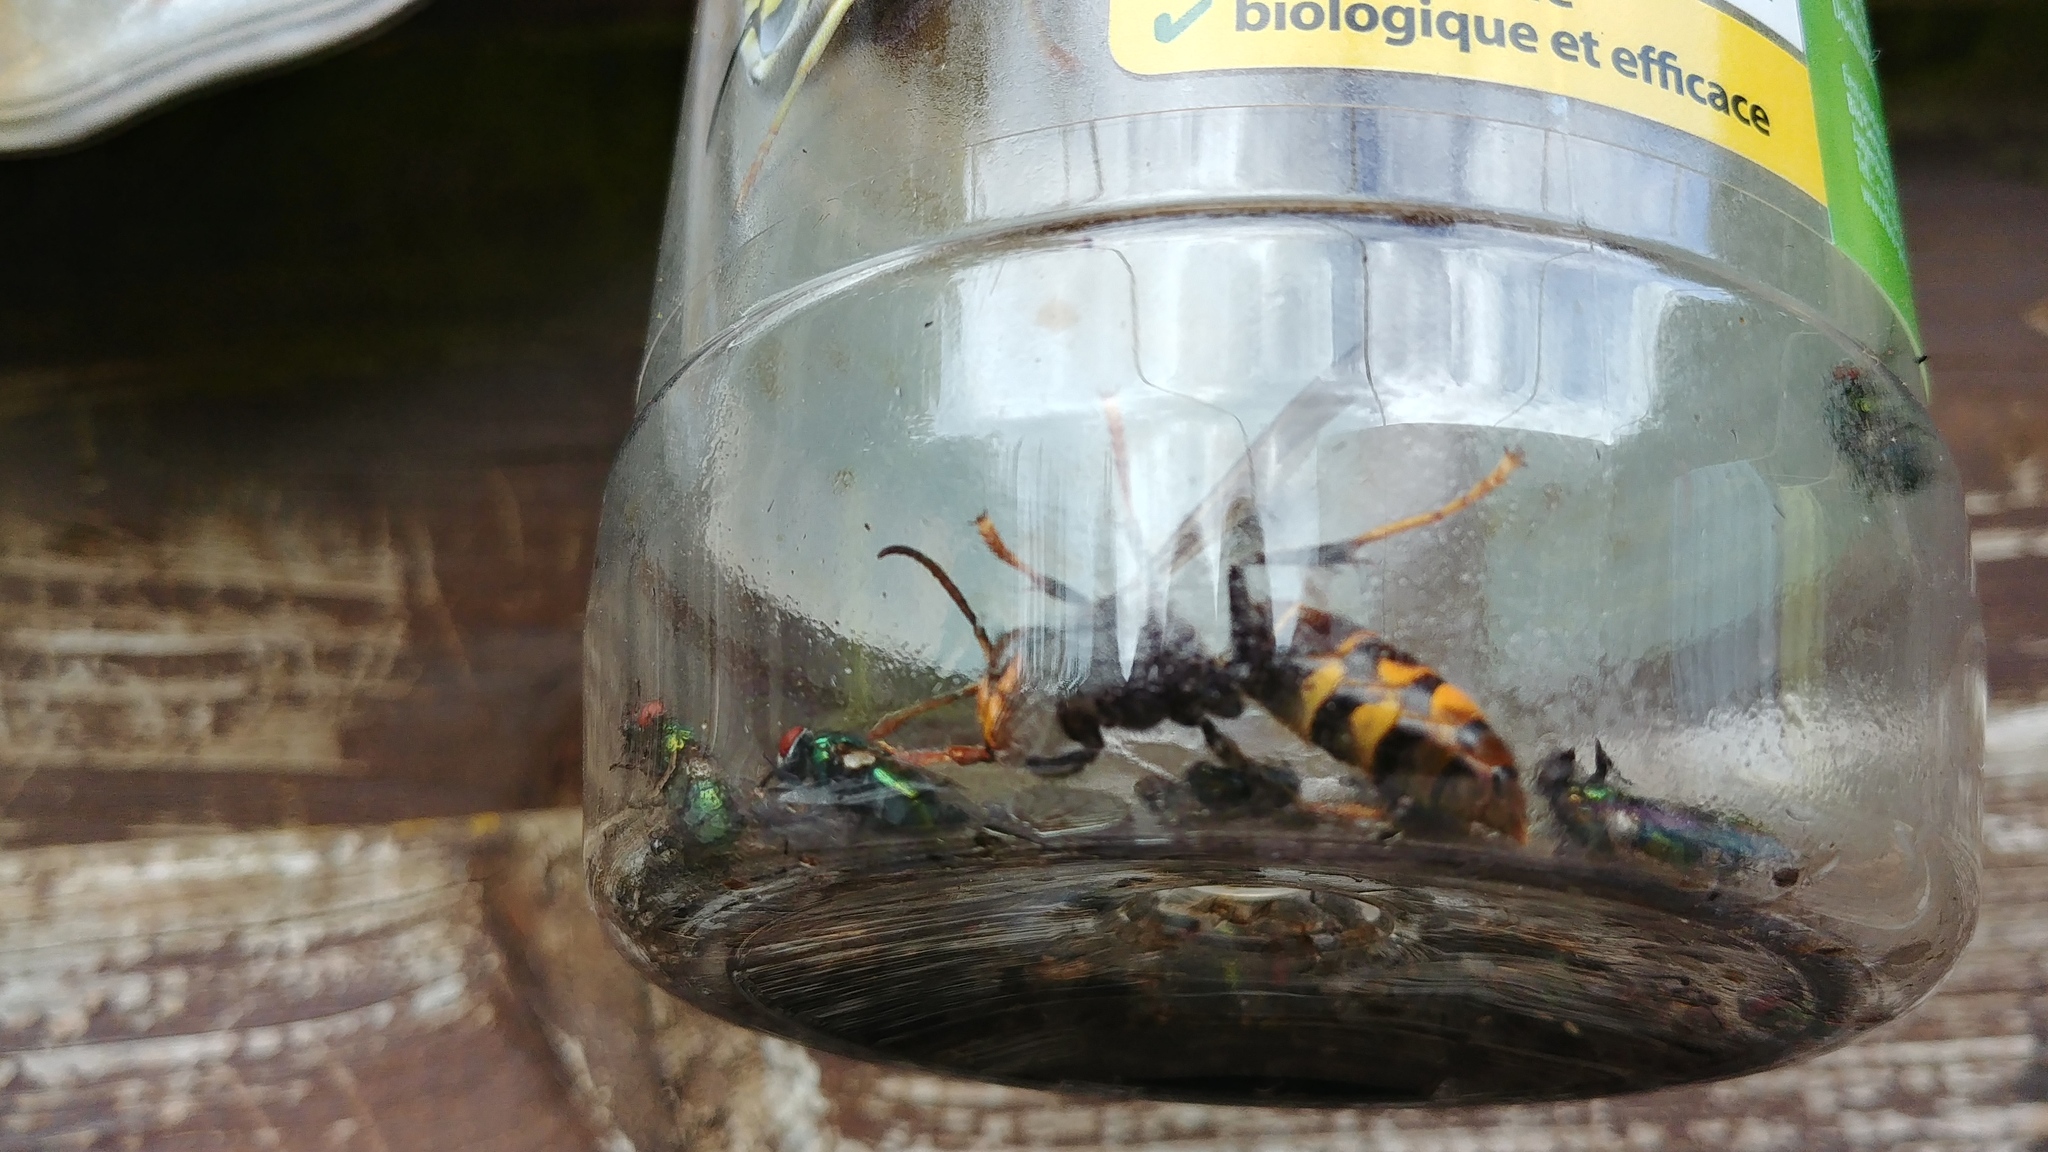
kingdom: Animalia
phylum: Arthropoda
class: Insecta
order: Hymenoptera
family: Vespidae
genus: Vespa
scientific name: Vespa velutina
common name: Asian hornet
